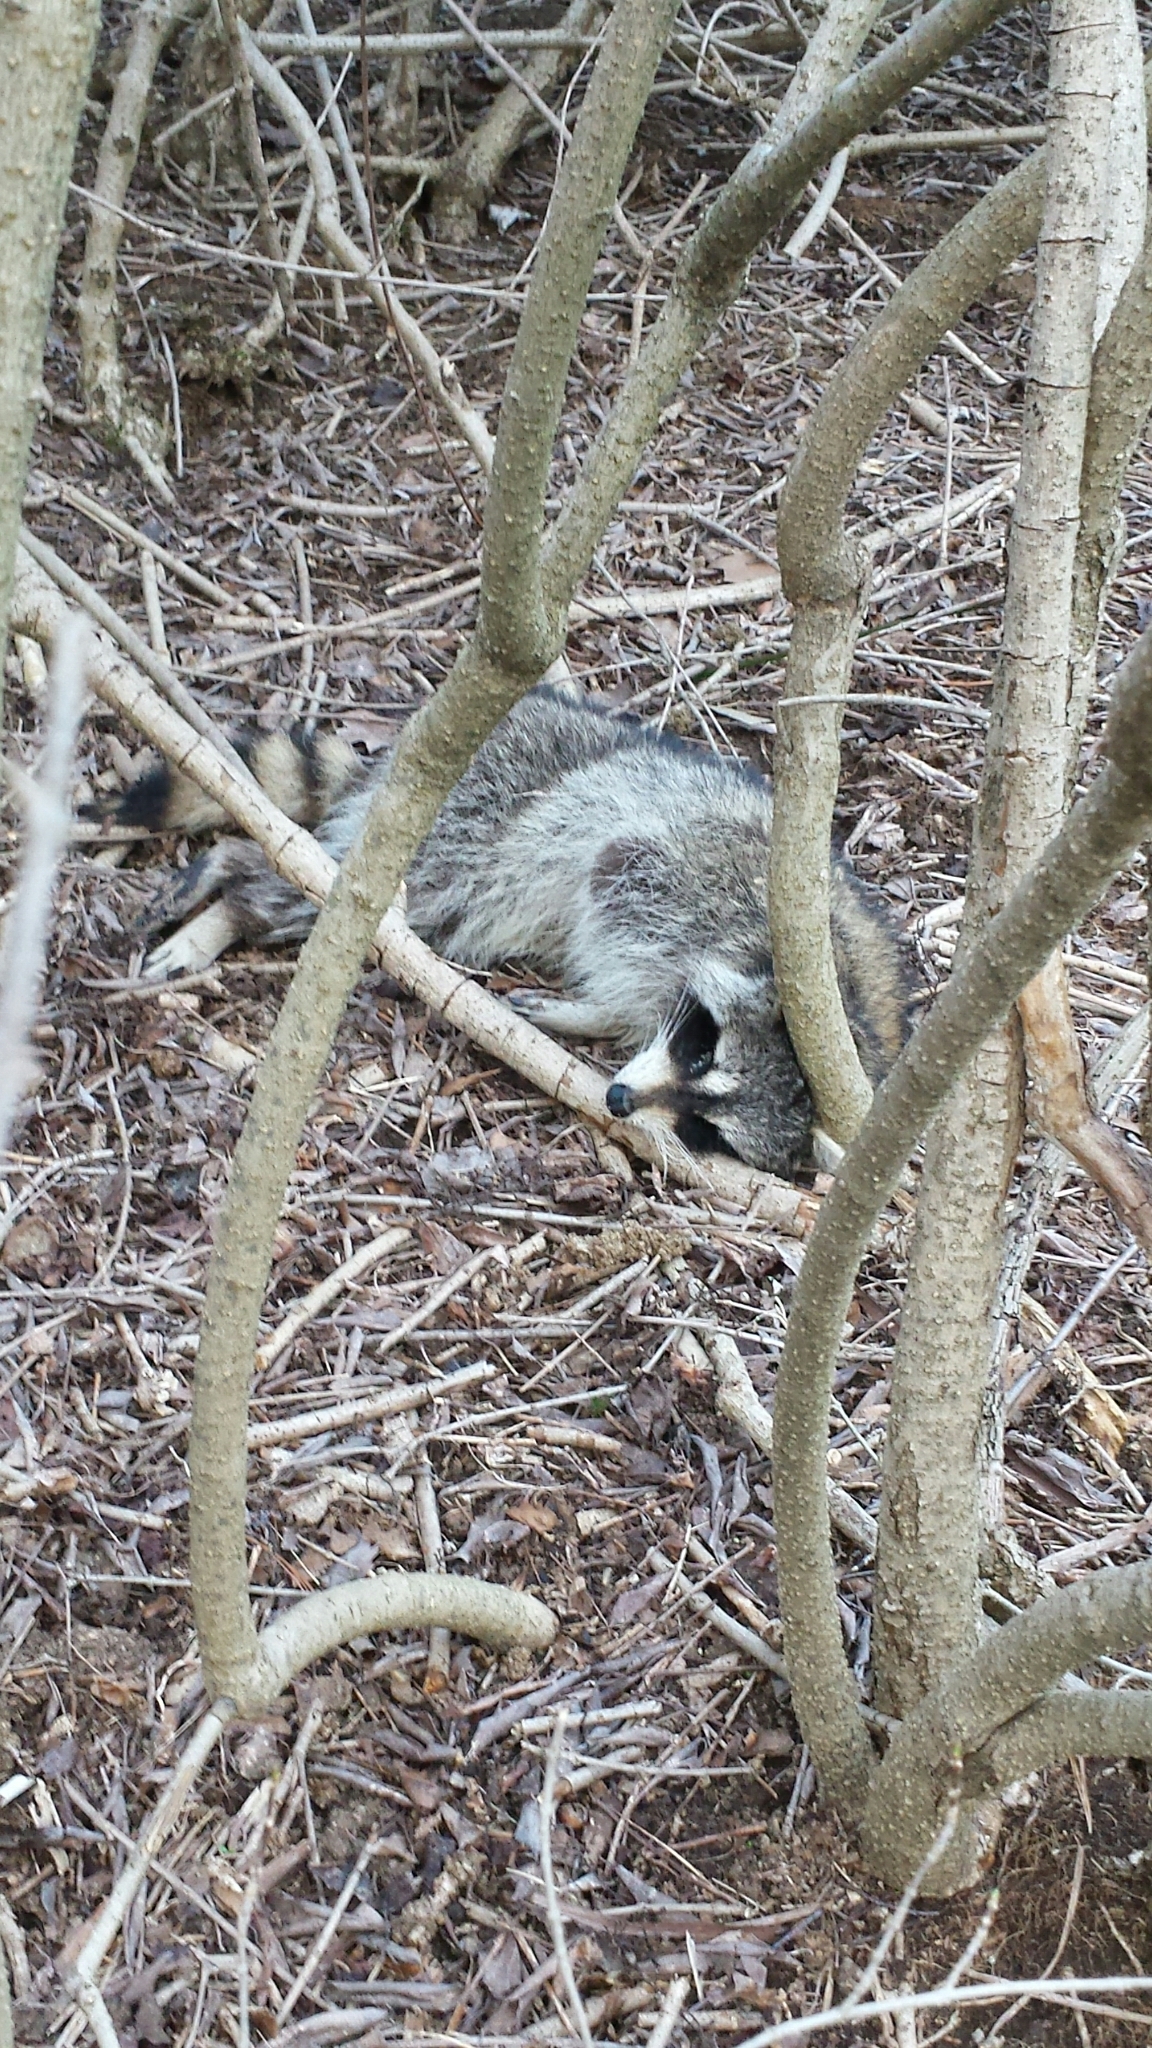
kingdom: Animalia
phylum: Chordata
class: Mammalia
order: Carnivora
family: Procyonidae
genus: Procyon
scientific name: Procyon lotor
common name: Raccoon
